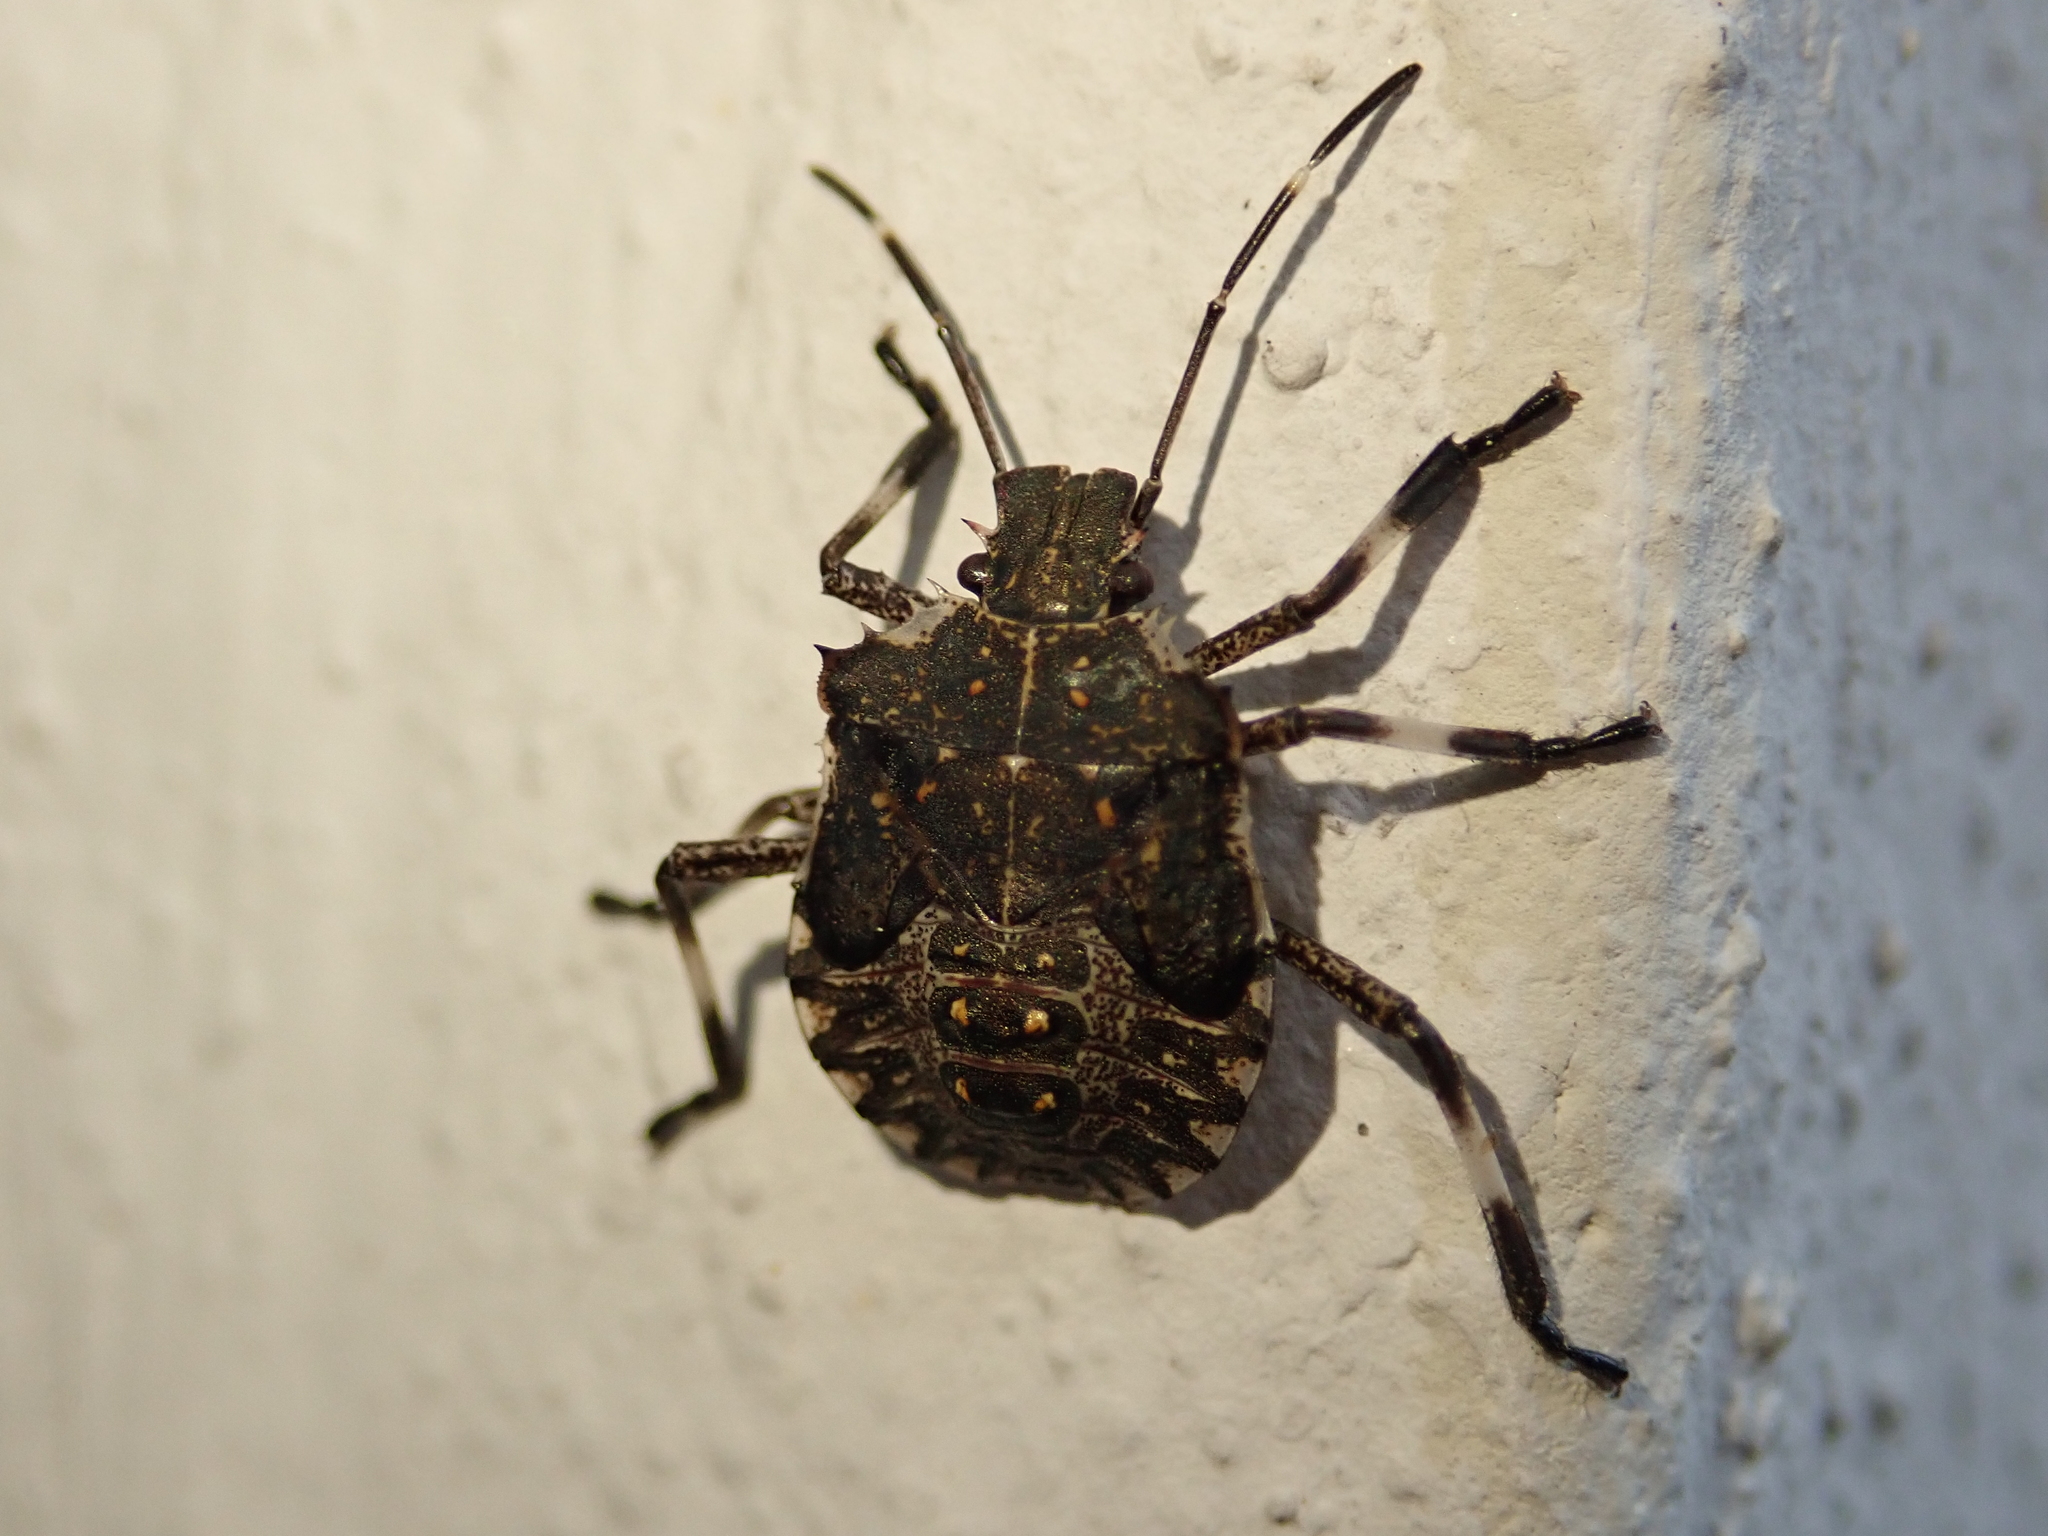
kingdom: Animalia
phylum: Arthropoda
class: Insecta
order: Hemiptera
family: Pentatomidae
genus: Halyomorpha
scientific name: Halyomorpha halys
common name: Brown marmorated stink bug
